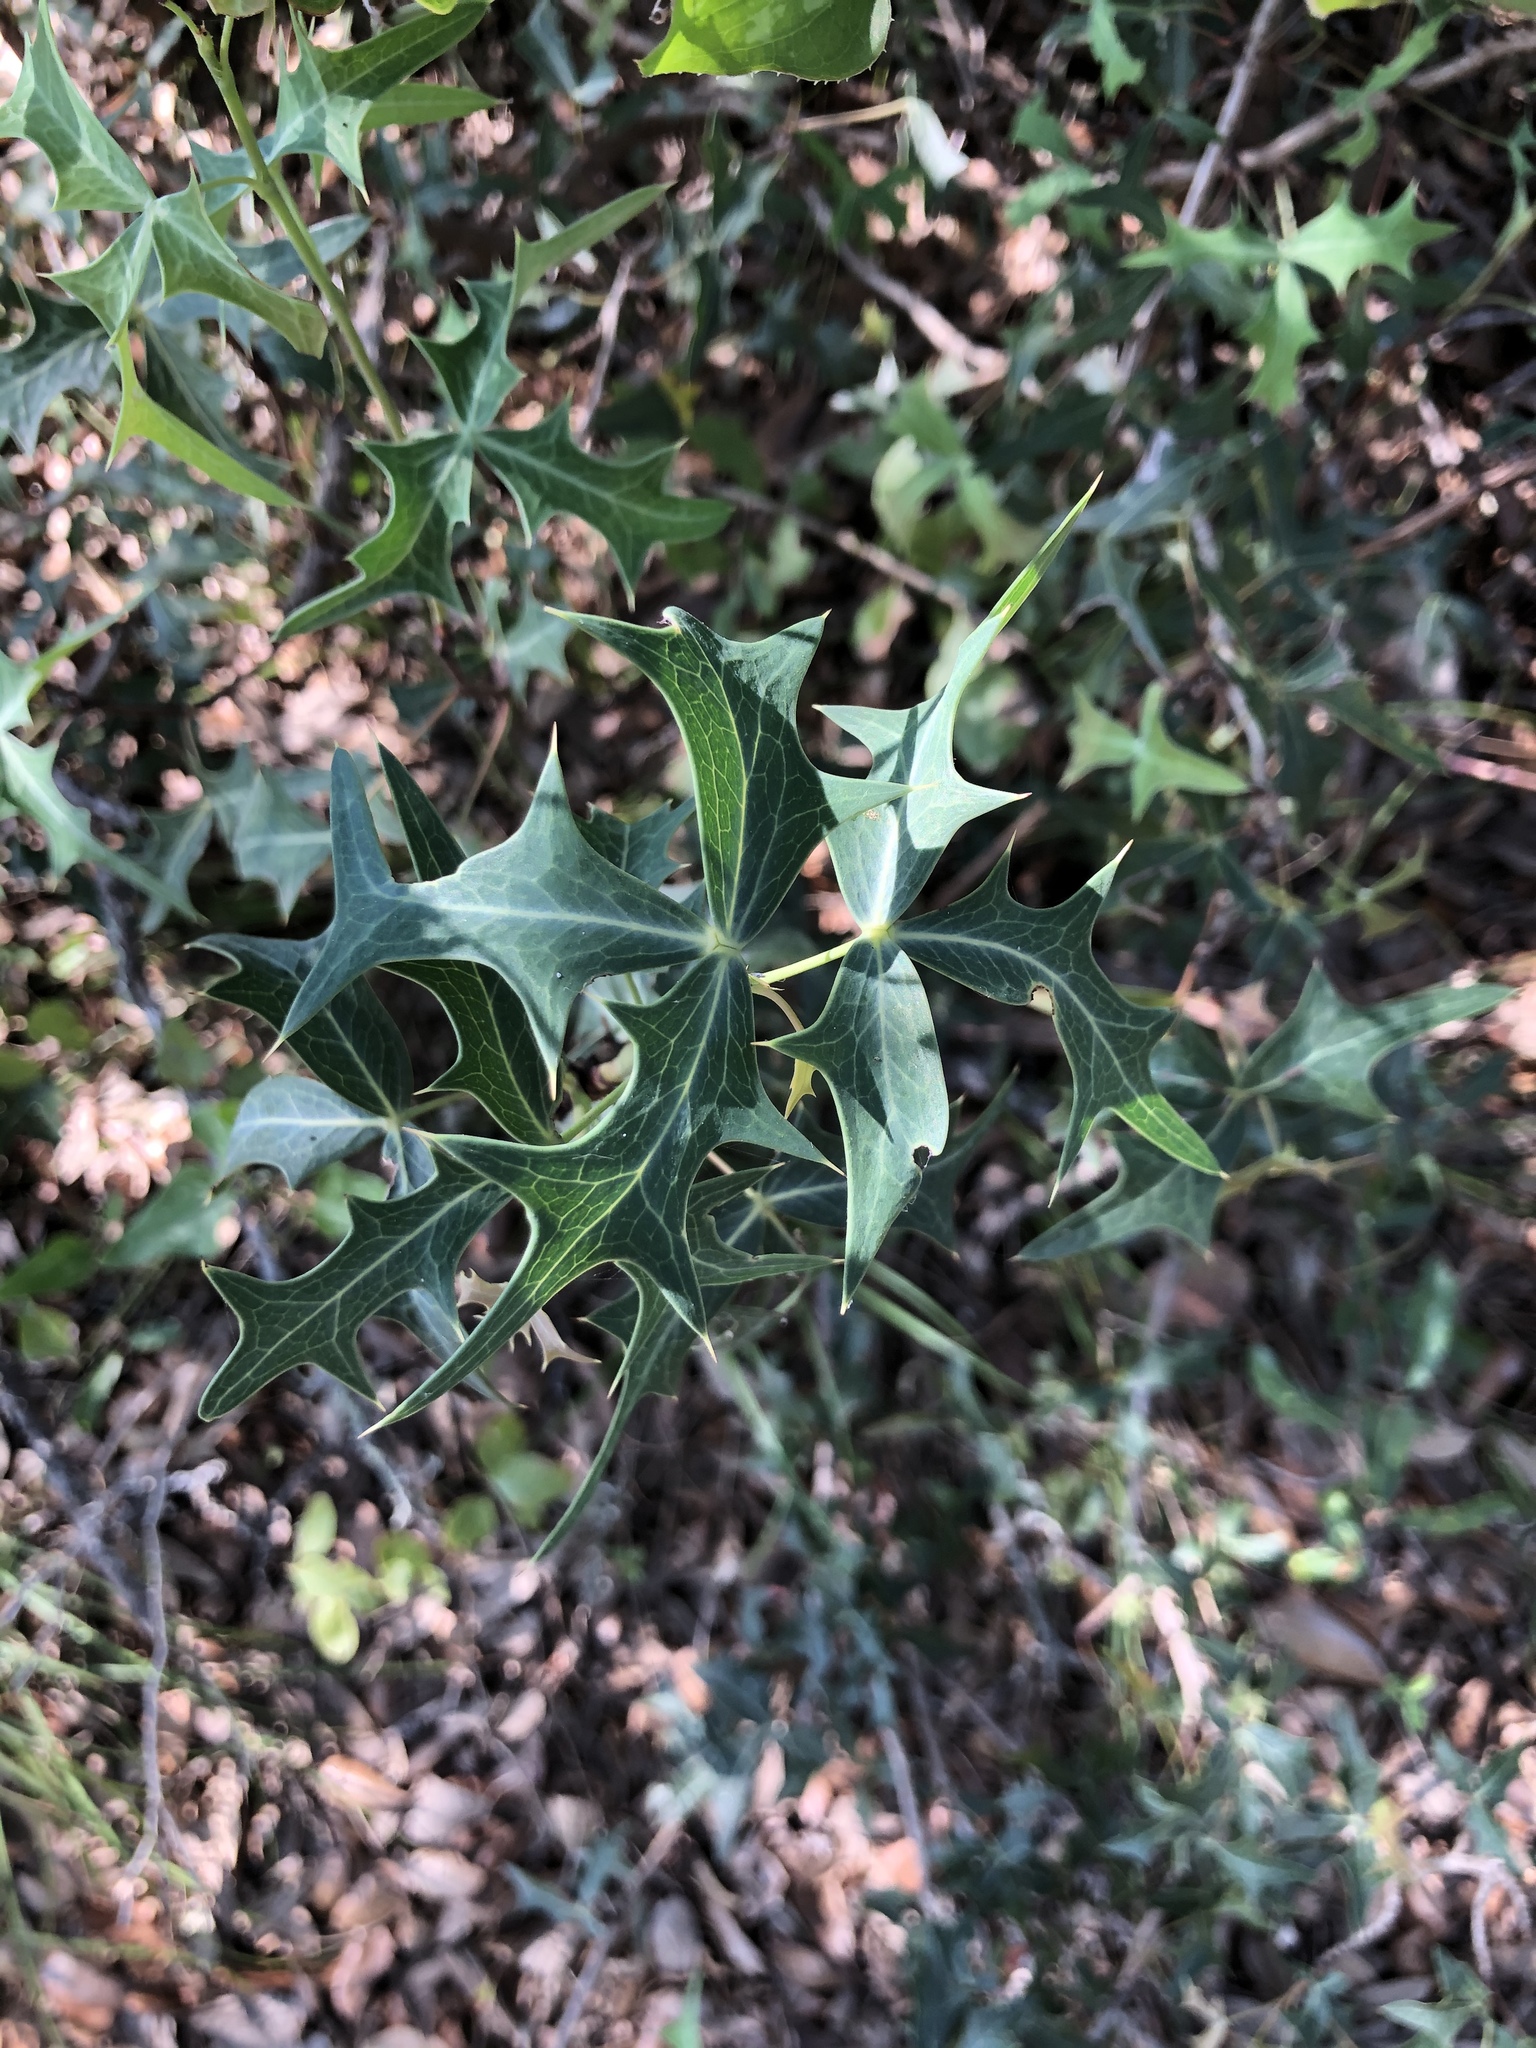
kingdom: Plantae
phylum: Tracheophyta
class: Magnoliopsida
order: Ranunculales
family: Berberidaceae
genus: Alloberberis
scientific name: Alloberberis trifoliolata
